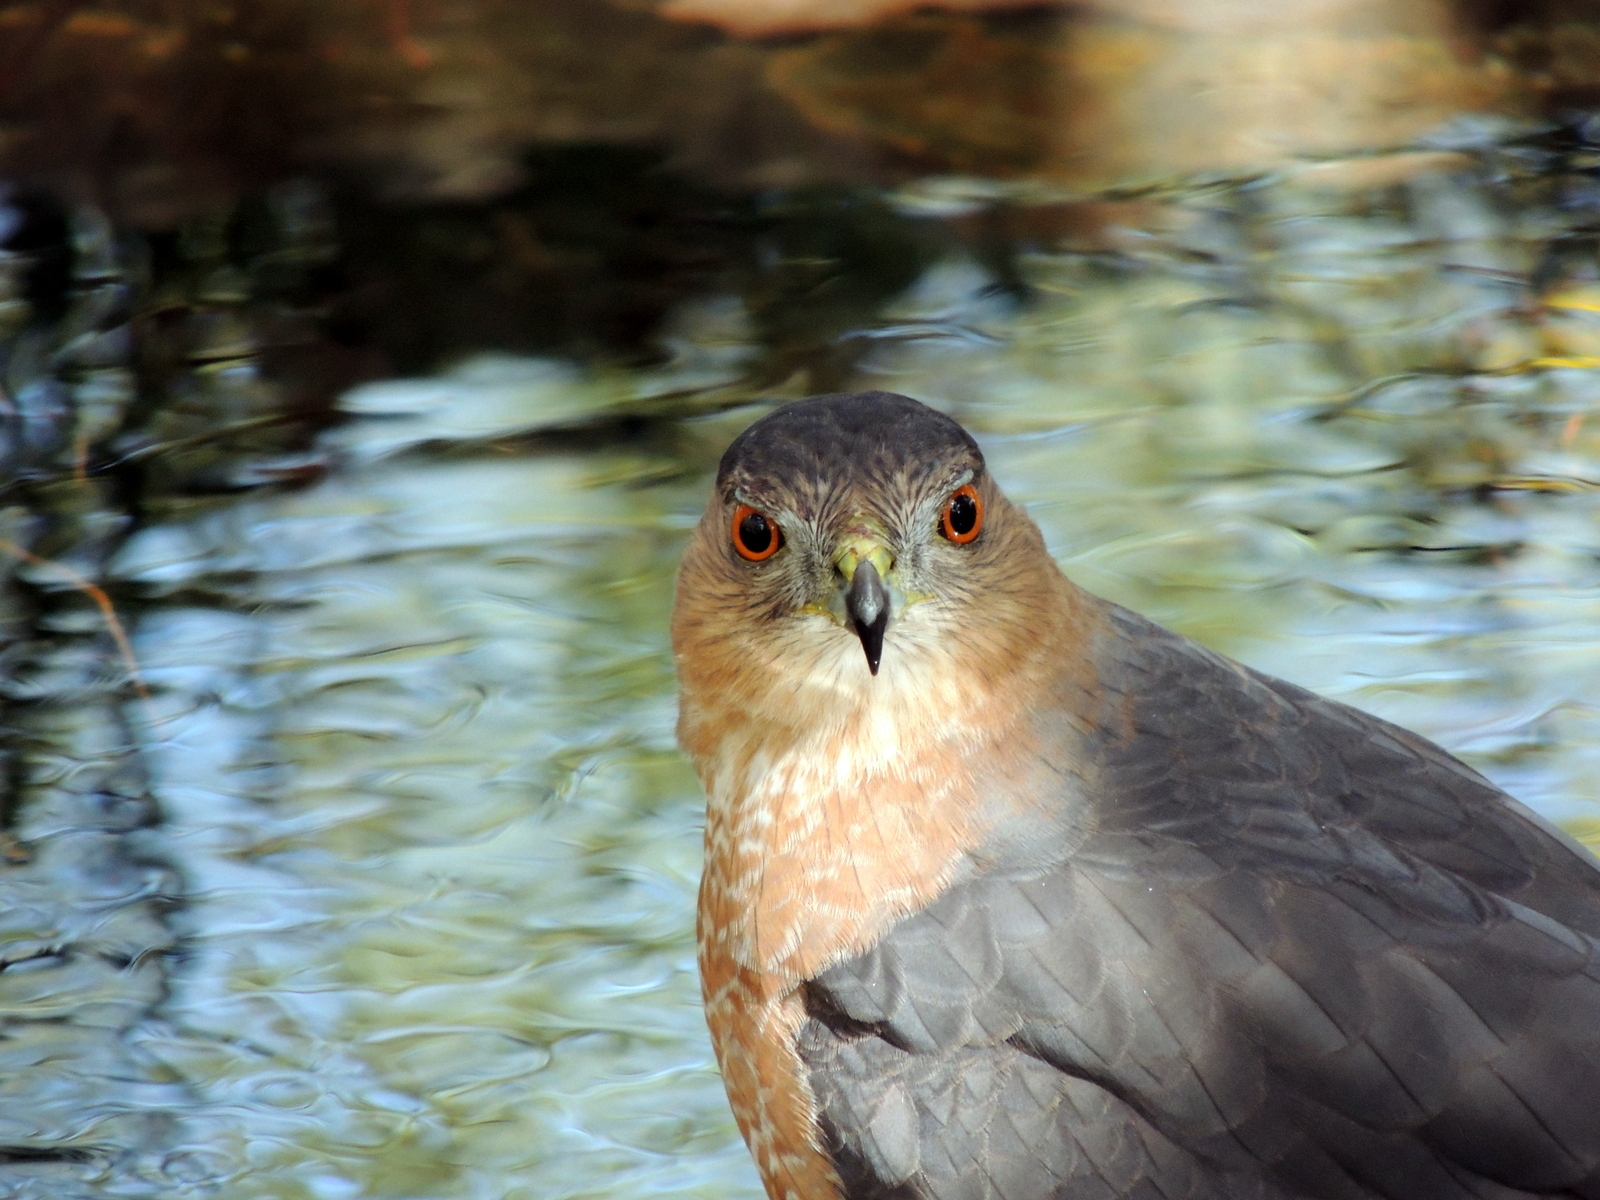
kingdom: Animalia
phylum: Chordata
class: Aves
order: Accipitriformes
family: Accipitridae
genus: Accipiter
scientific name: Accipiter cooperii
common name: Cooper's hawk
